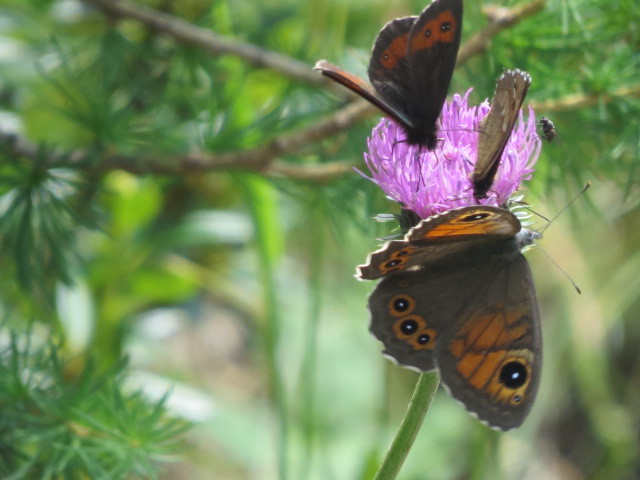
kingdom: Animalia
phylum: Arthropoda
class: Insecta
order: Lepidoptera
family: Nymphalidae
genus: Pararge
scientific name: Pararge Lasiommata maera
